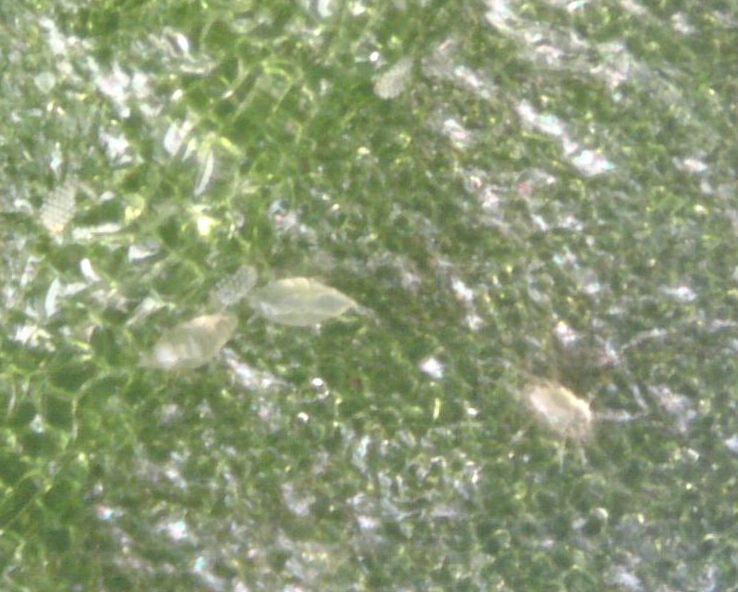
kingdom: Animalia
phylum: Arthropoda
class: Arachnida
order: Trombidiformes
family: Tarsonemidae
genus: Polyphagotarsonemus
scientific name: Polyphagotarsonemus latus
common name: Mite
